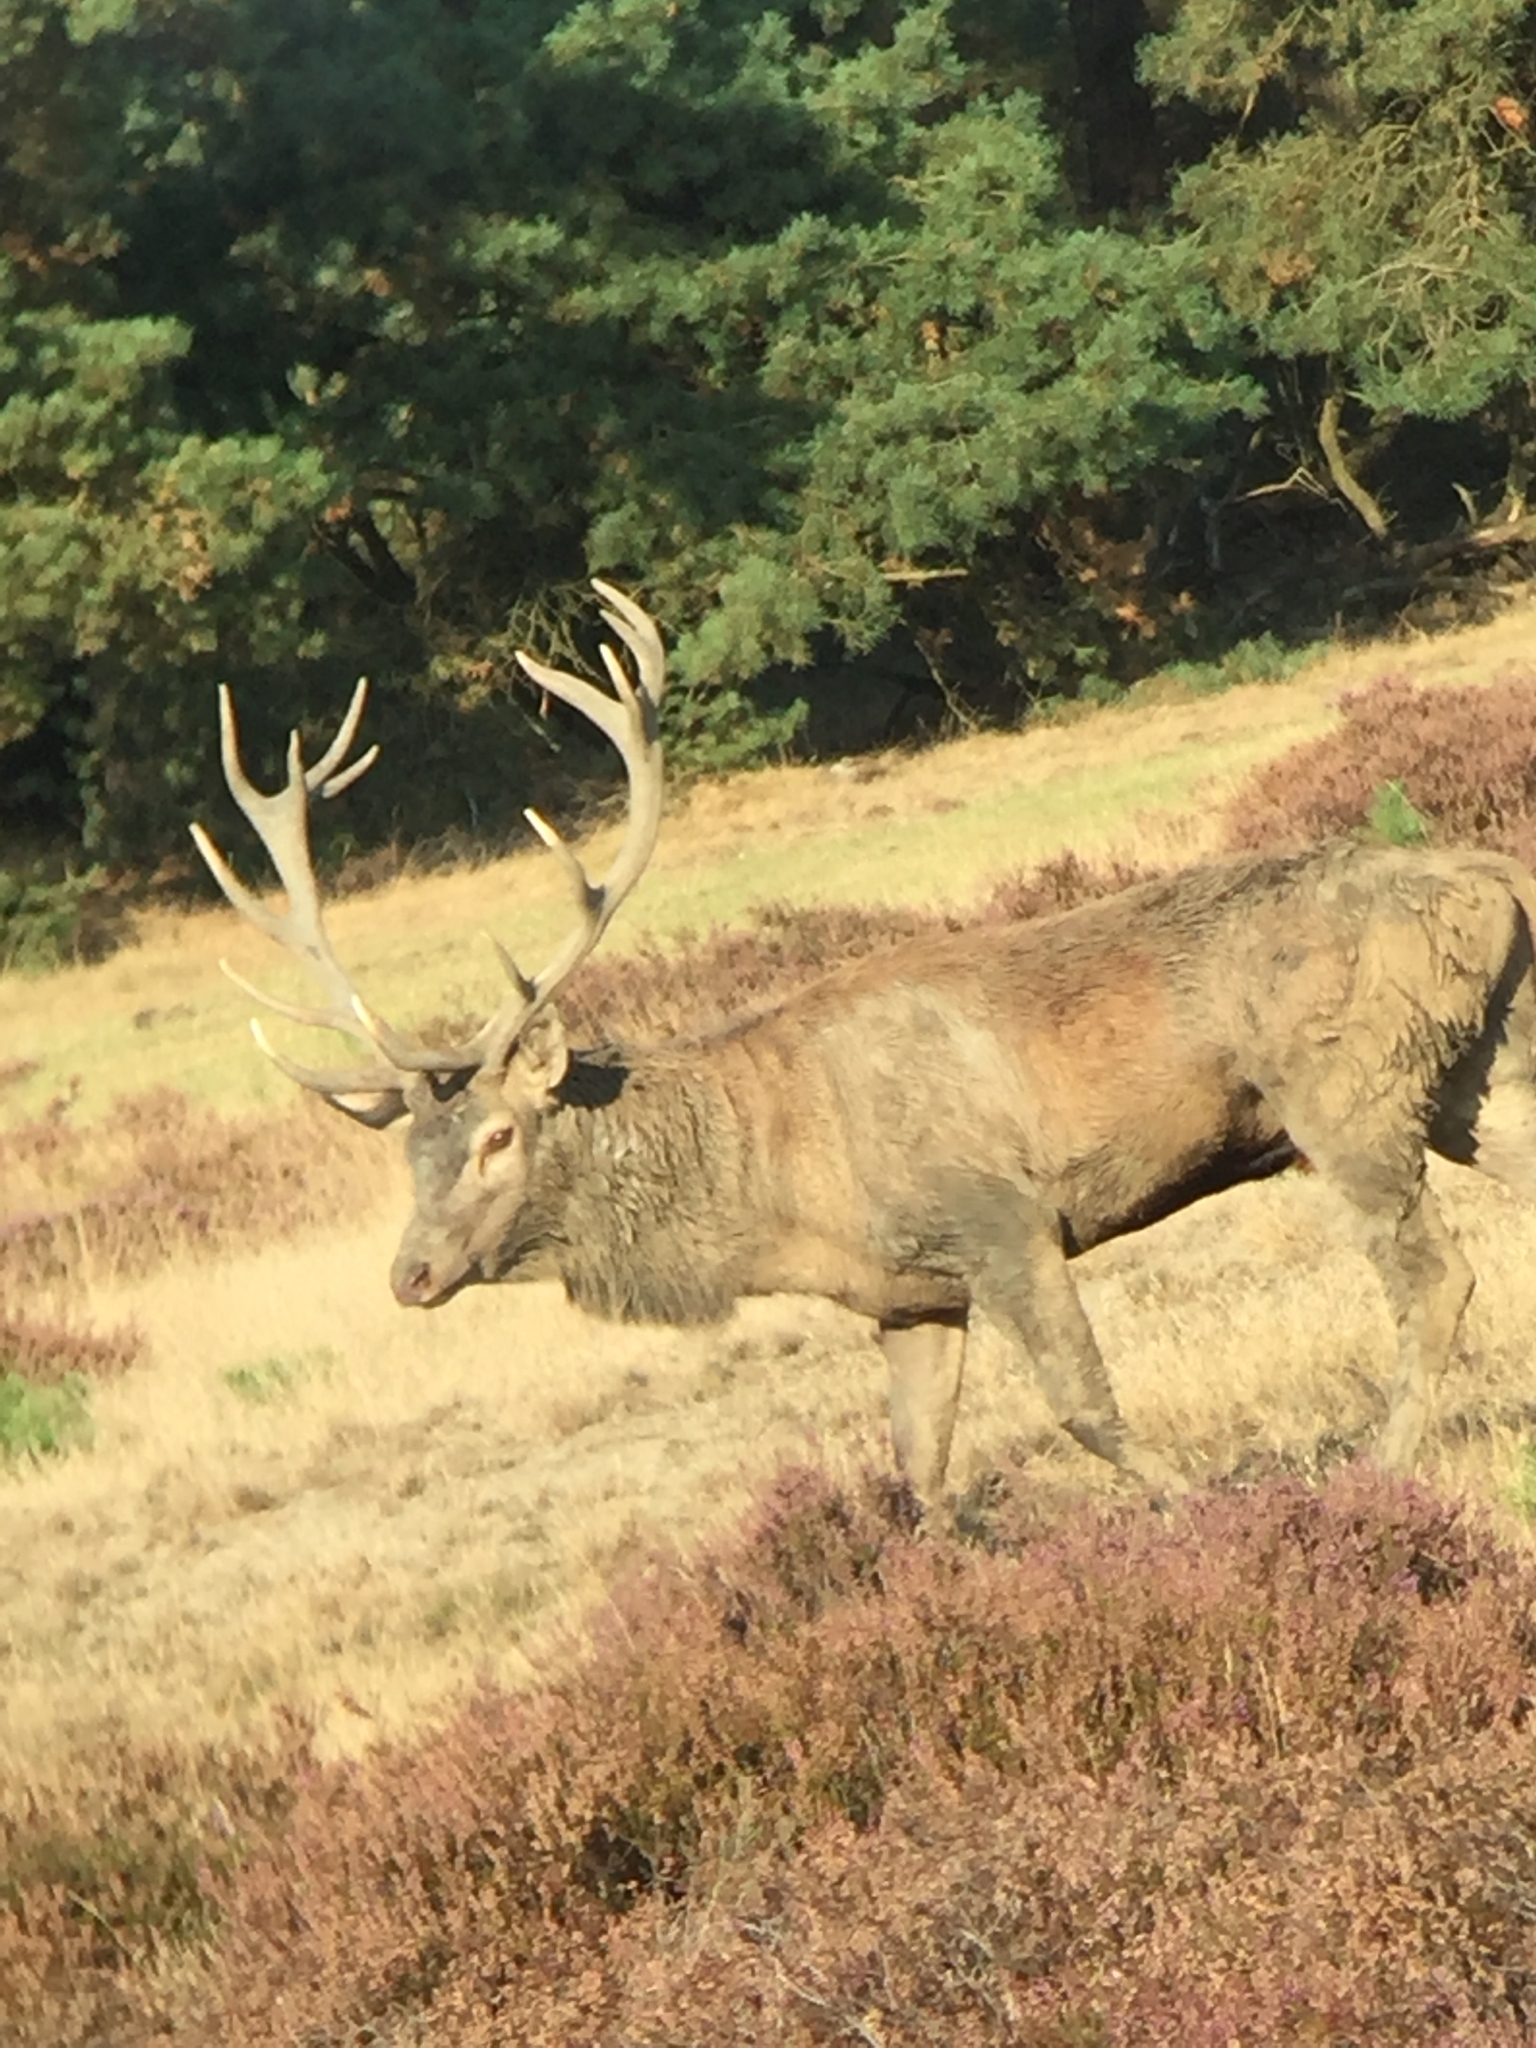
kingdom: Animalia
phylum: Chordata
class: Mammalia
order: Artiodactyla
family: Cervidae
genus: Cervus
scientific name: Cervus elaphus
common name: Red deer
